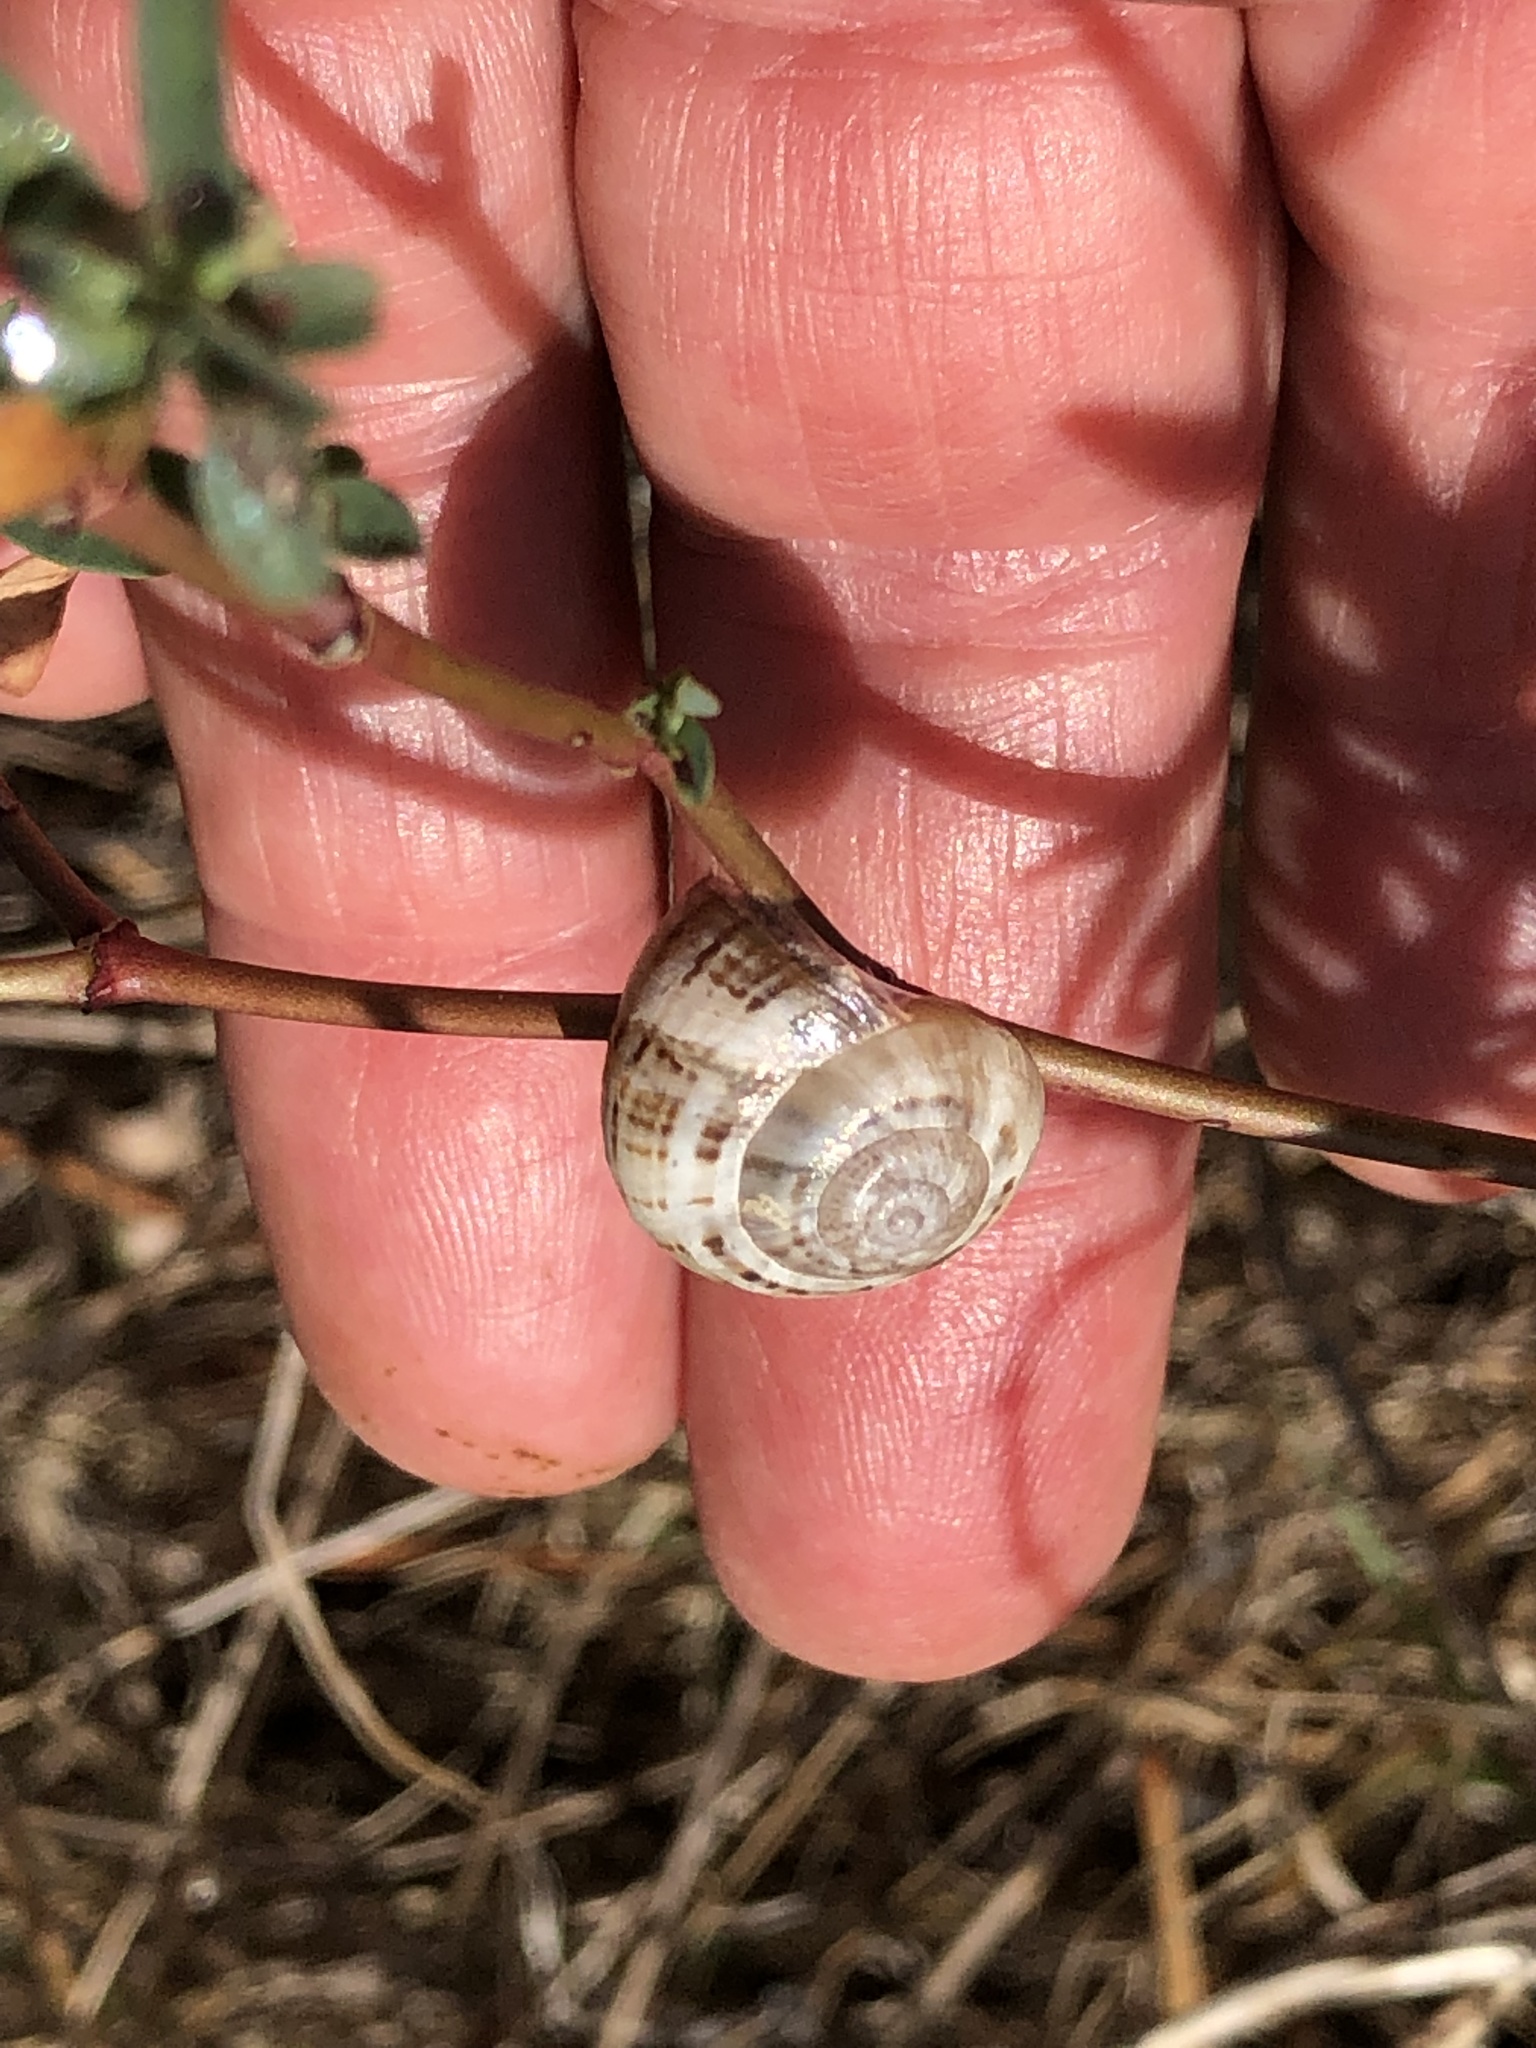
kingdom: Animalia
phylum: Mollusca
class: Gastropoda
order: Stylommatophora
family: Helicidae
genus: Theba
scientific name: Theba pisana
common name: White snail
